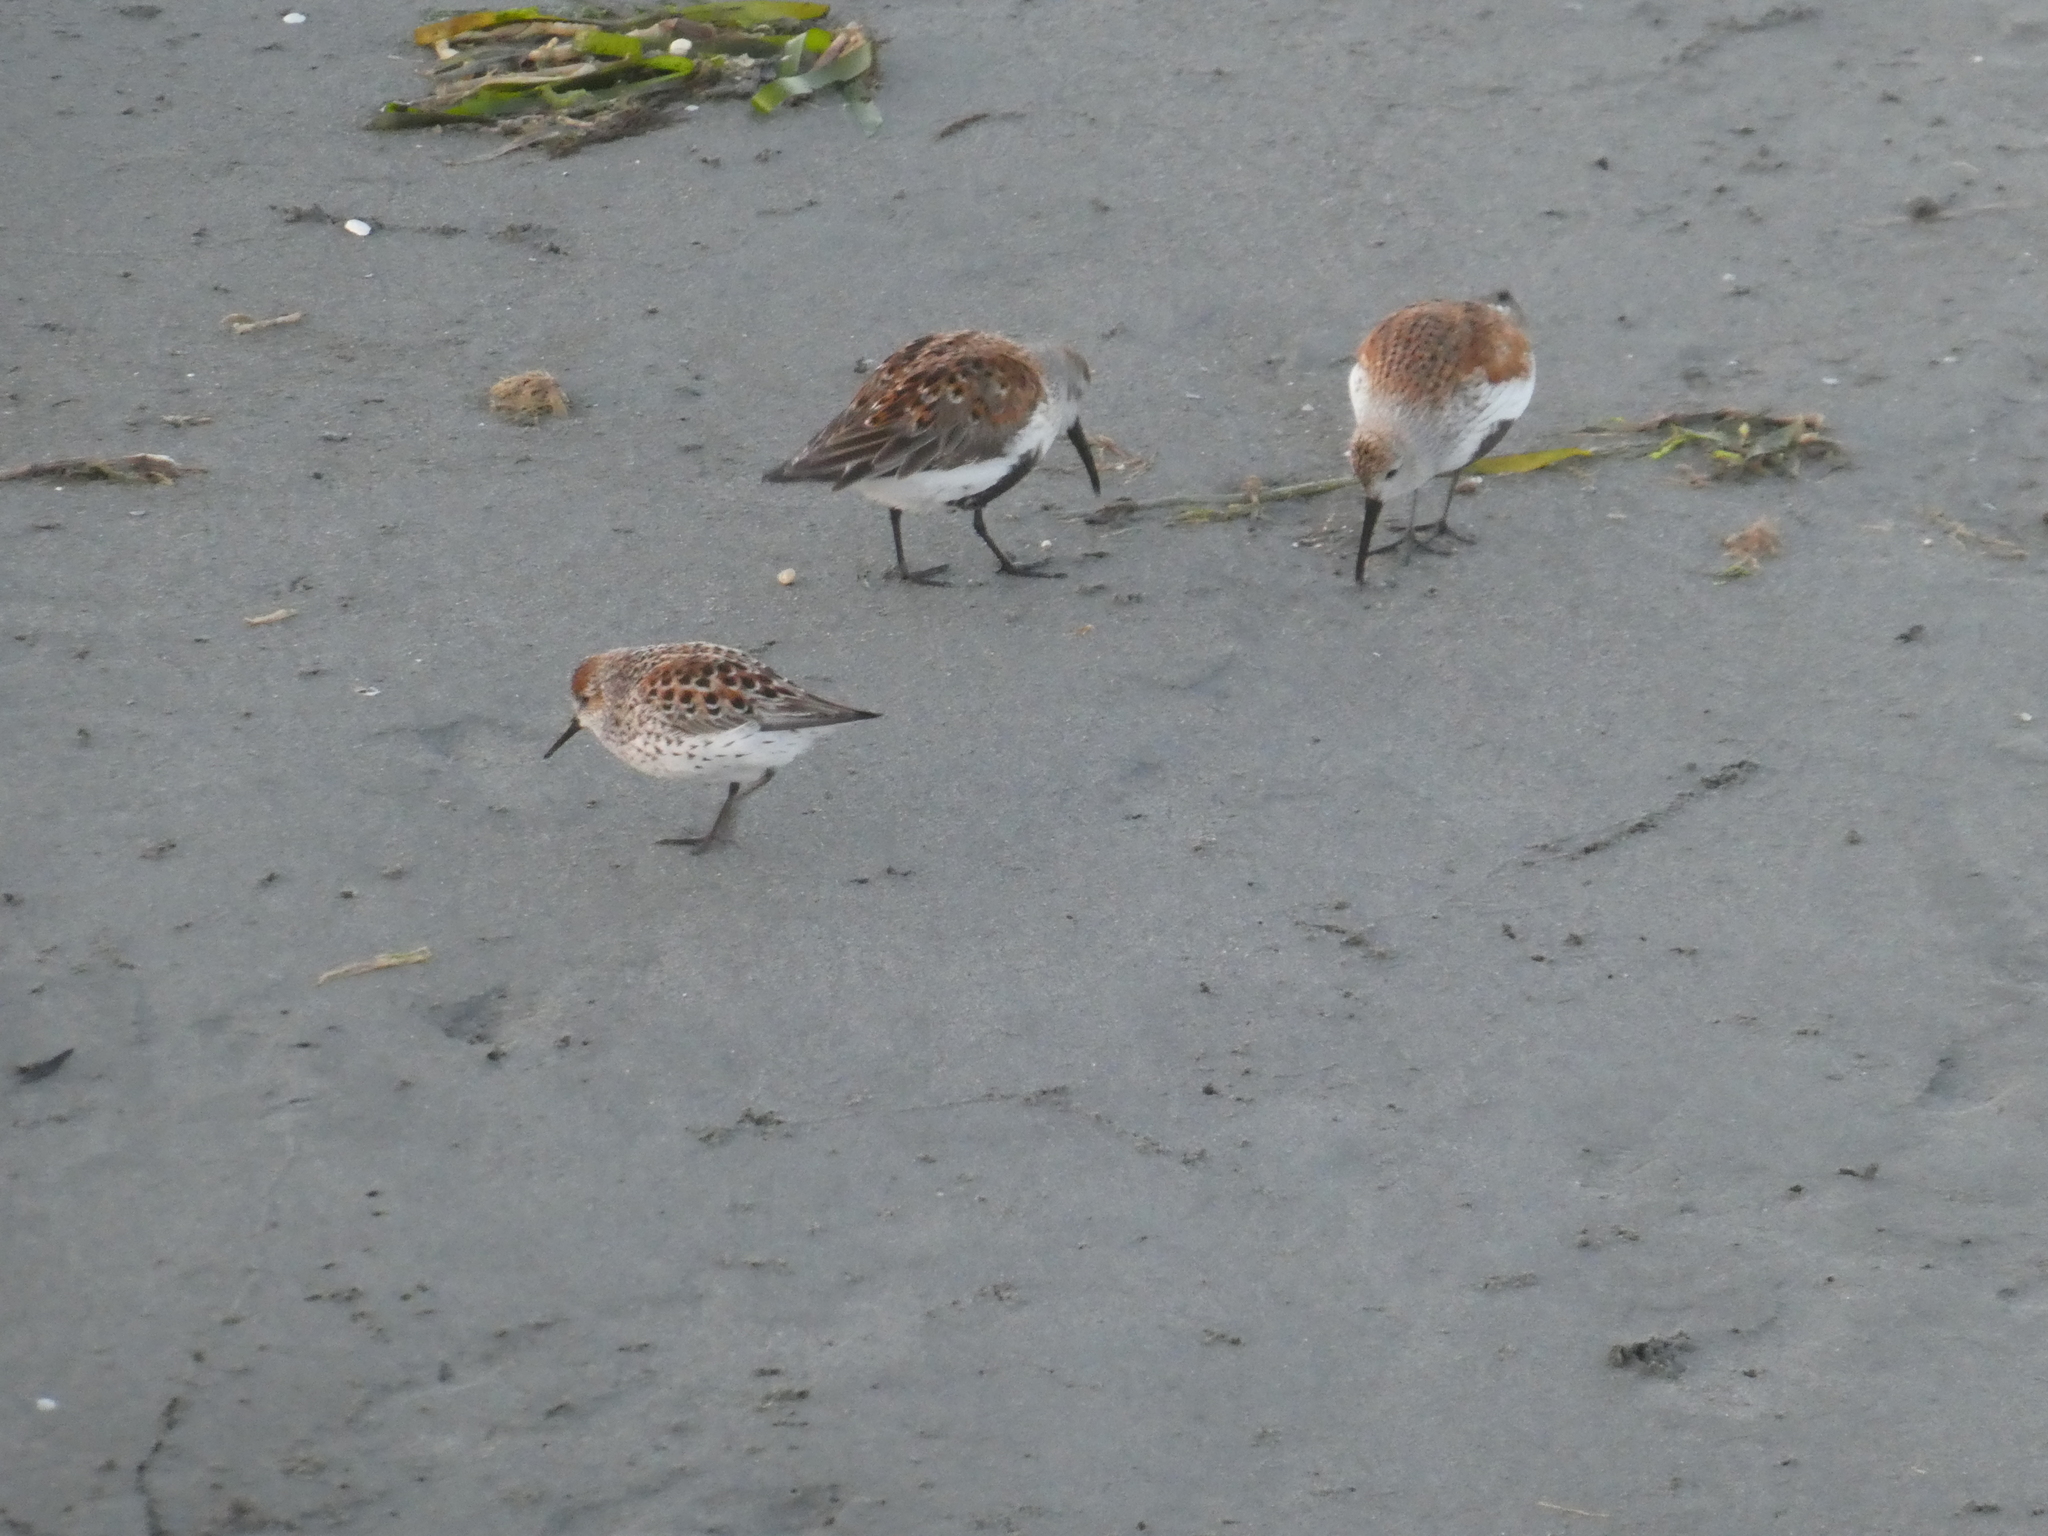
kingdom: Animalia
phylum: Chordata
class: Aves
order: Charadriiformes
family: Scolopacidae
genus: Calidris
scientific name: Calidris mauri
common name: Western sandpiper
